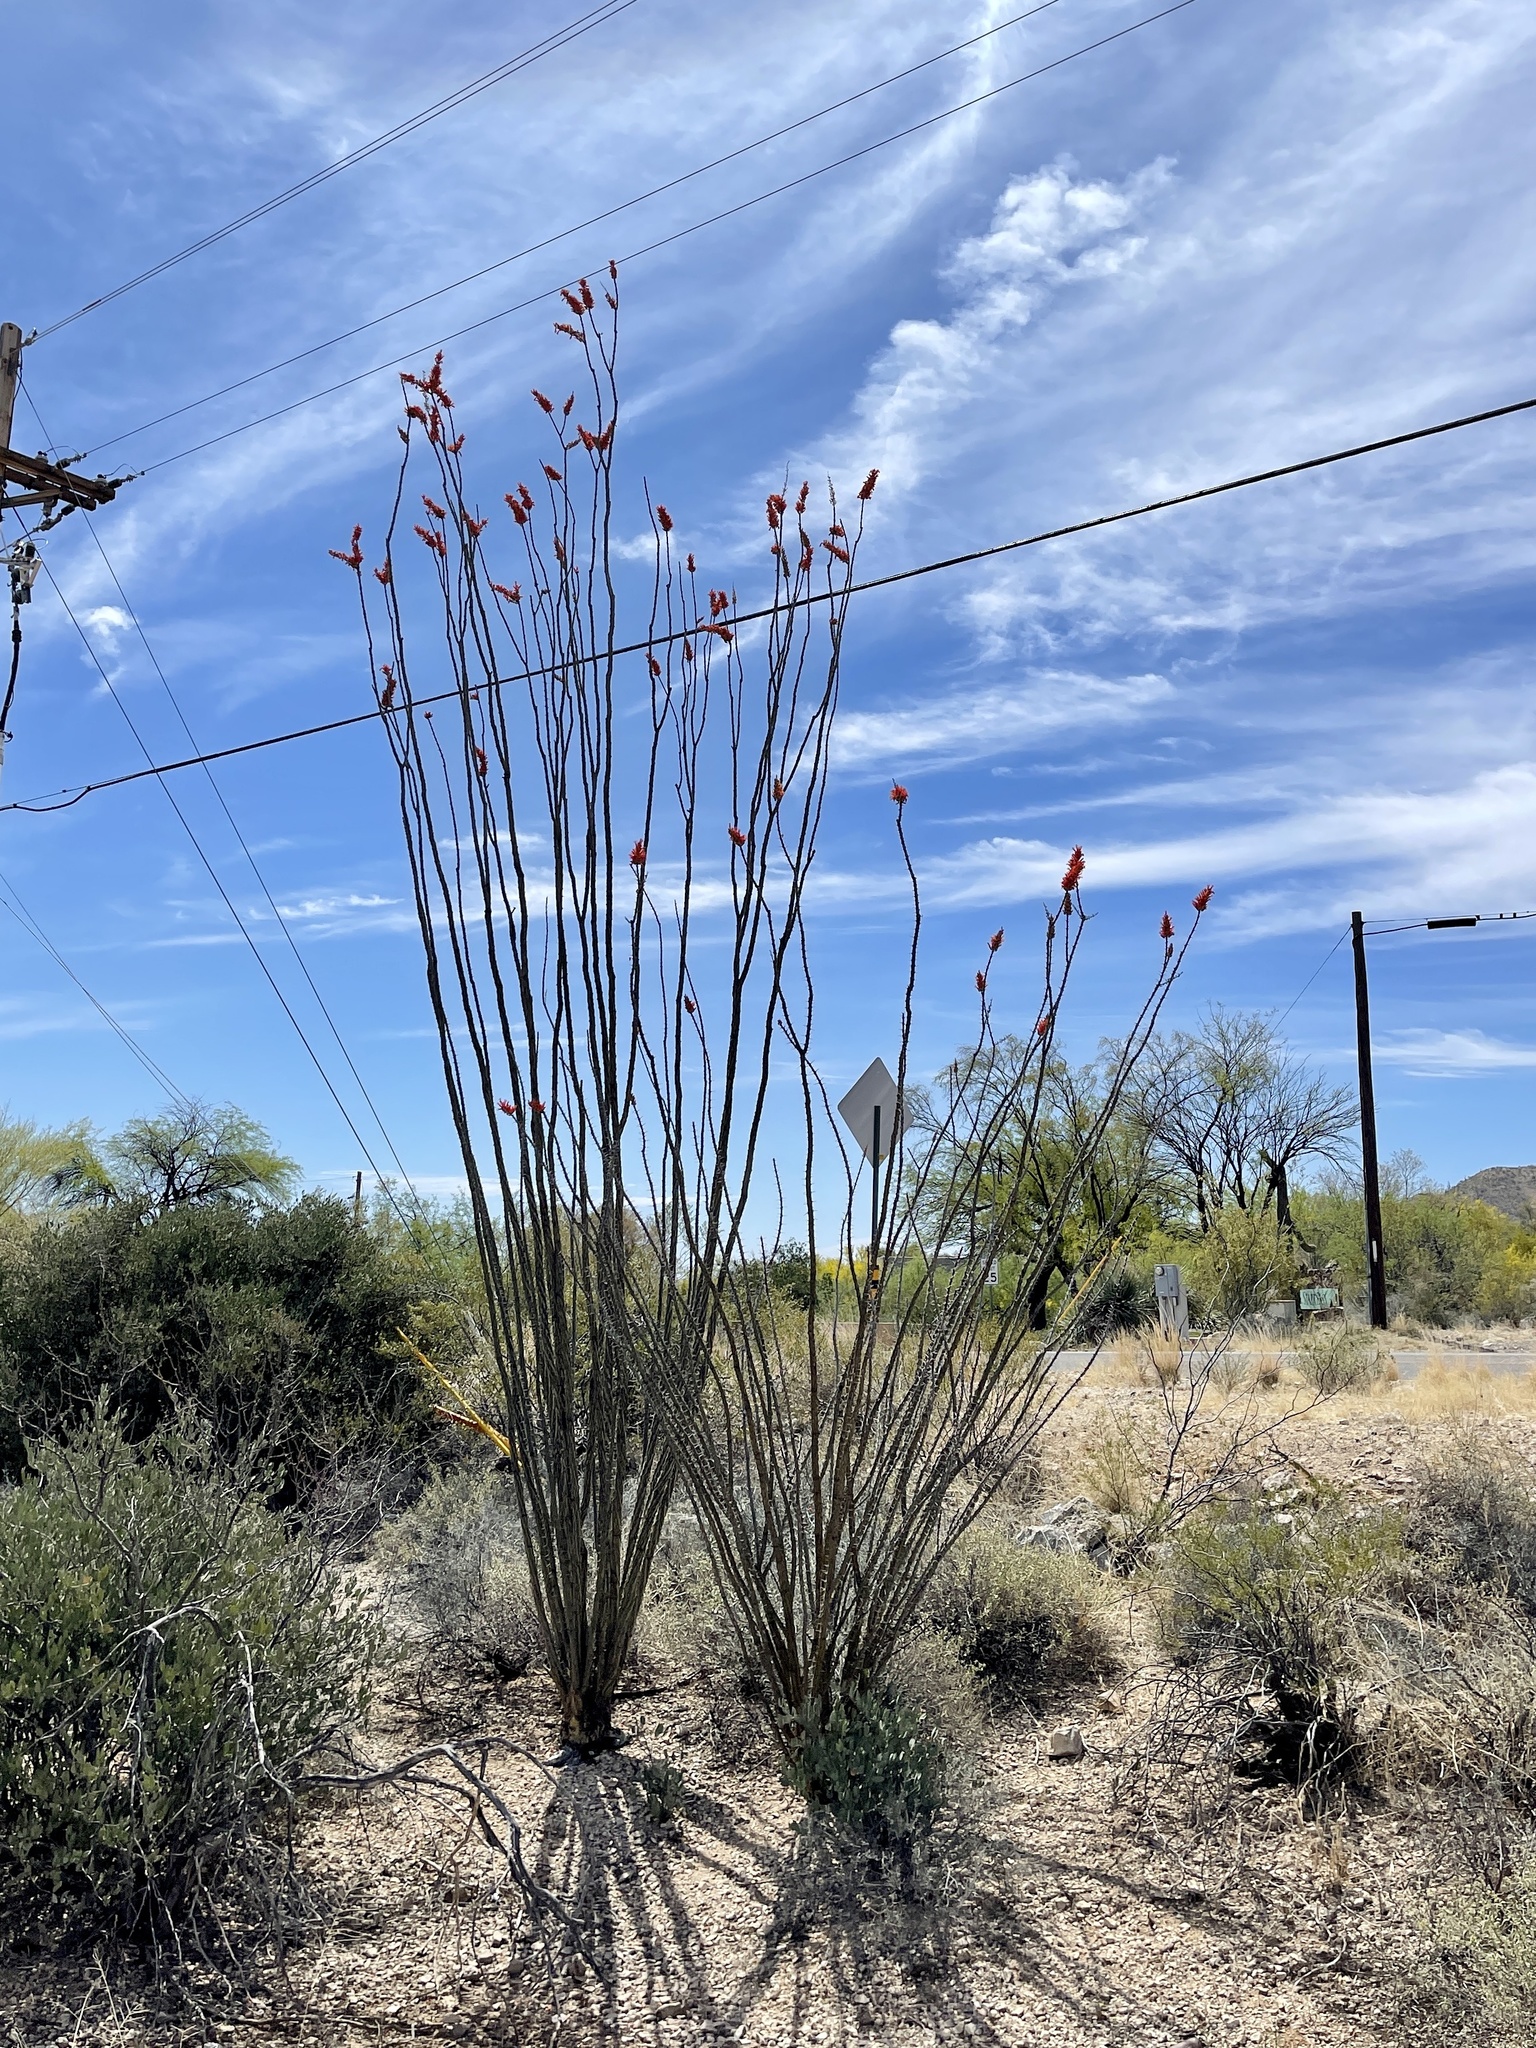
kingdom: Plantae
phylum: Tracheophyta
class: Magnoliopsida
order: Ericales
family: Fouquieriaceae
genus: Fouquieria
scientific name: Fouquieria splendens
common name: Vine-cactus
